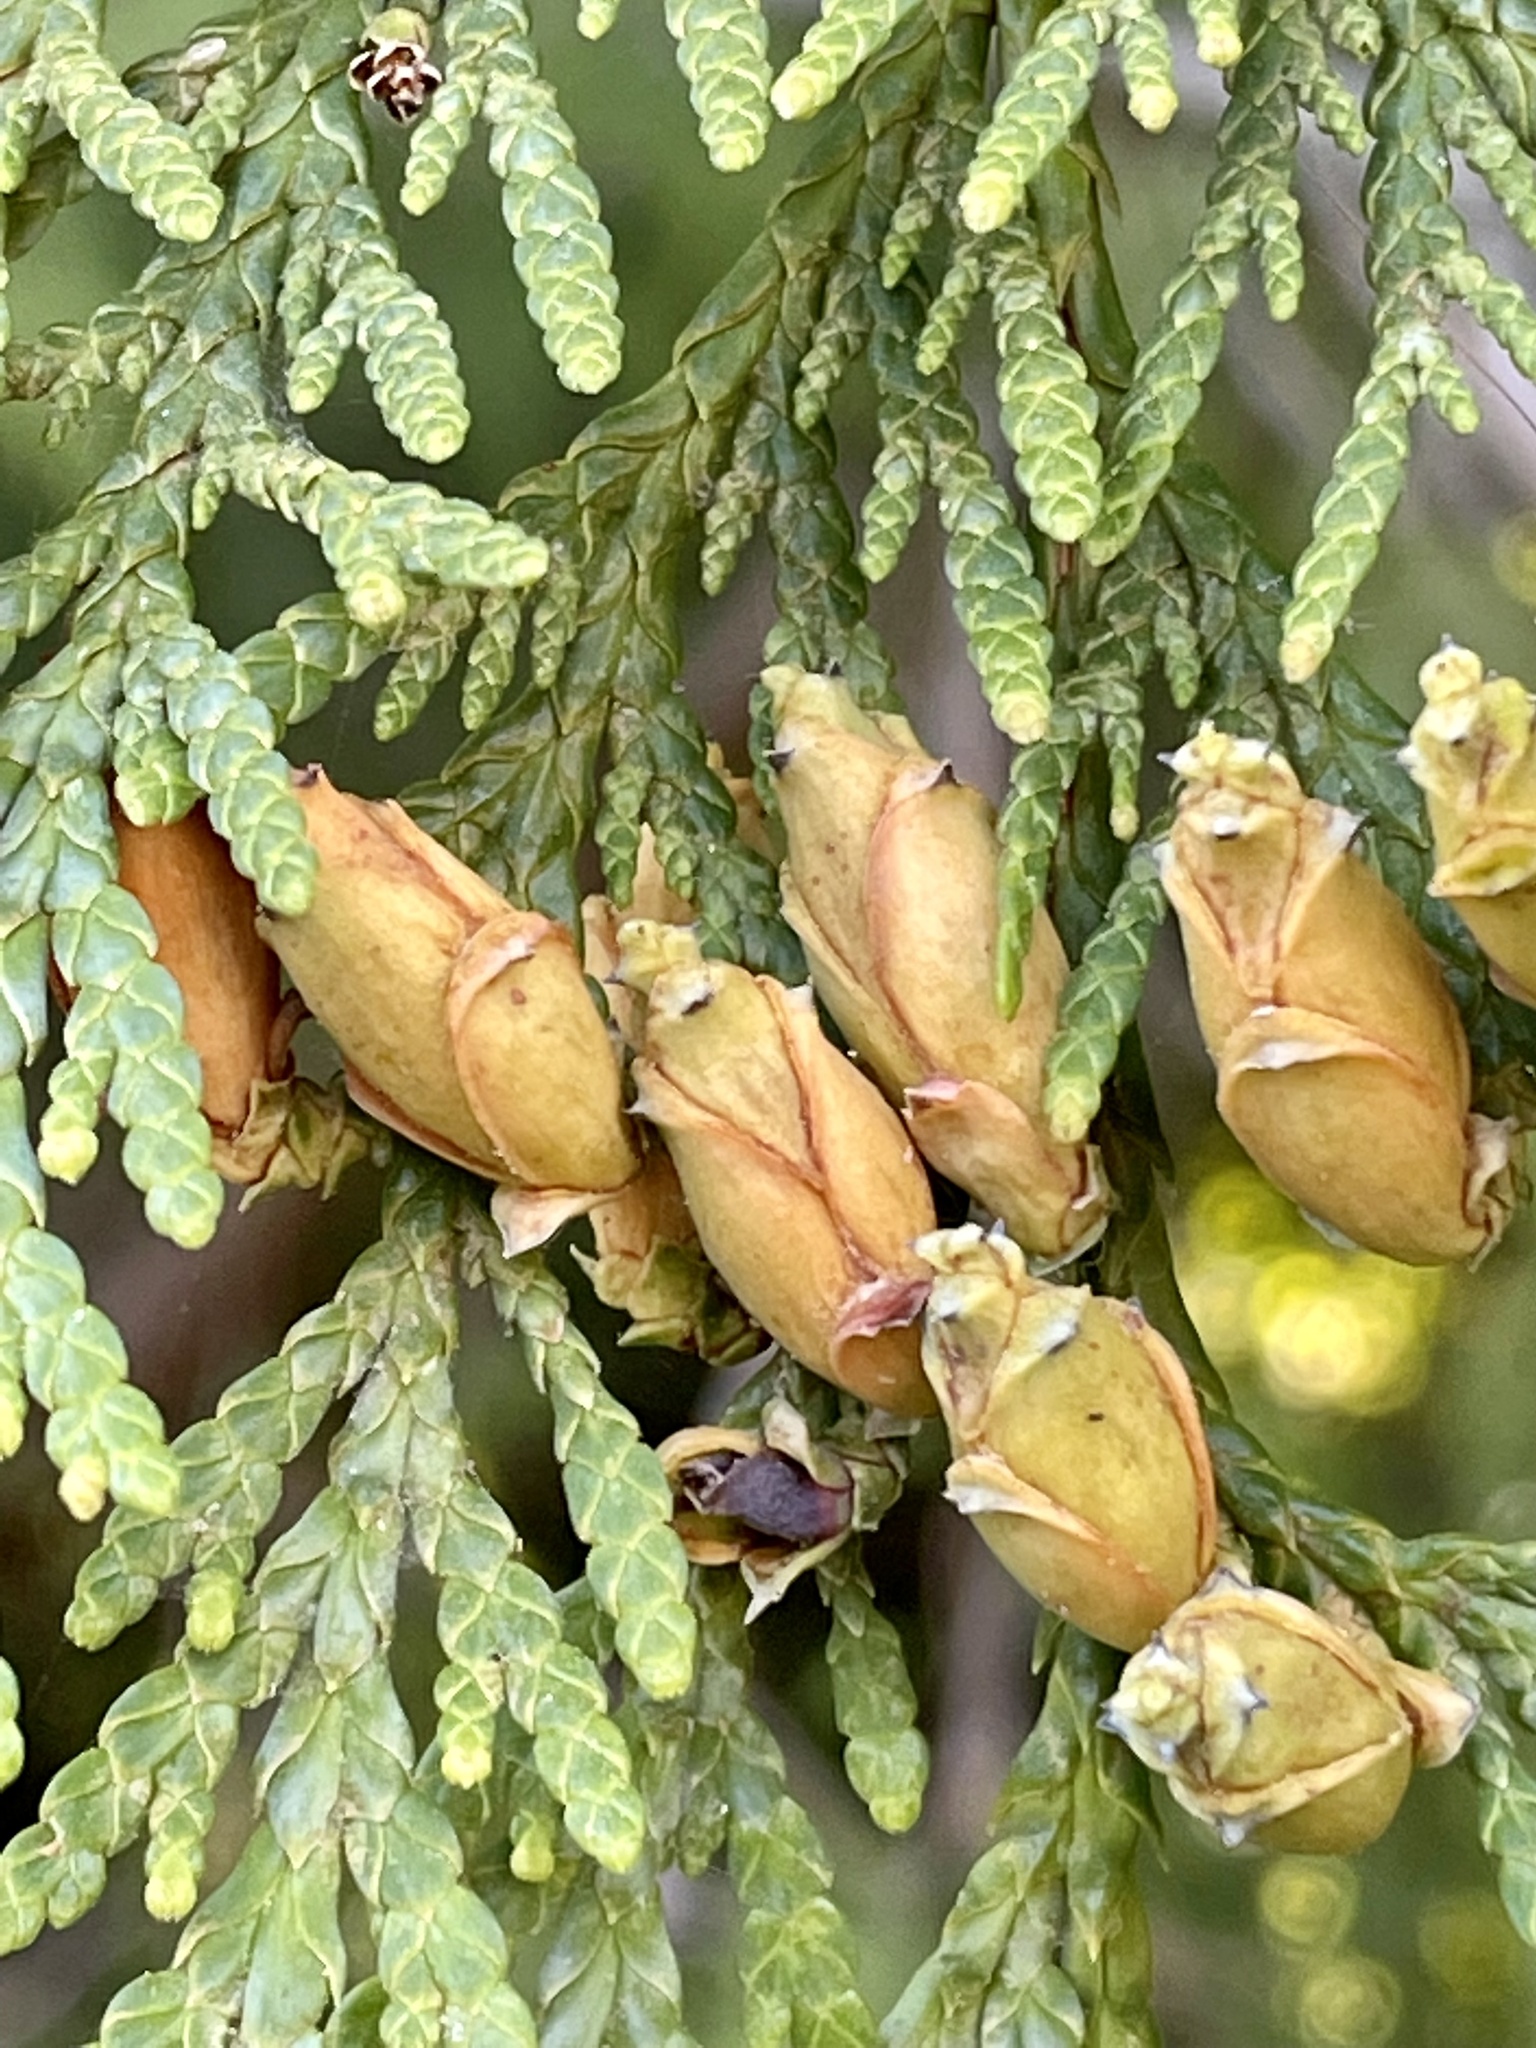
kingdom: Plantae
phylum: Tracheophyta
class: Pinopsida
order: Pinales
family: Cupressaceae
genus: Thuja
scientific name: Thuja plicata
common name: Western red-cedar
